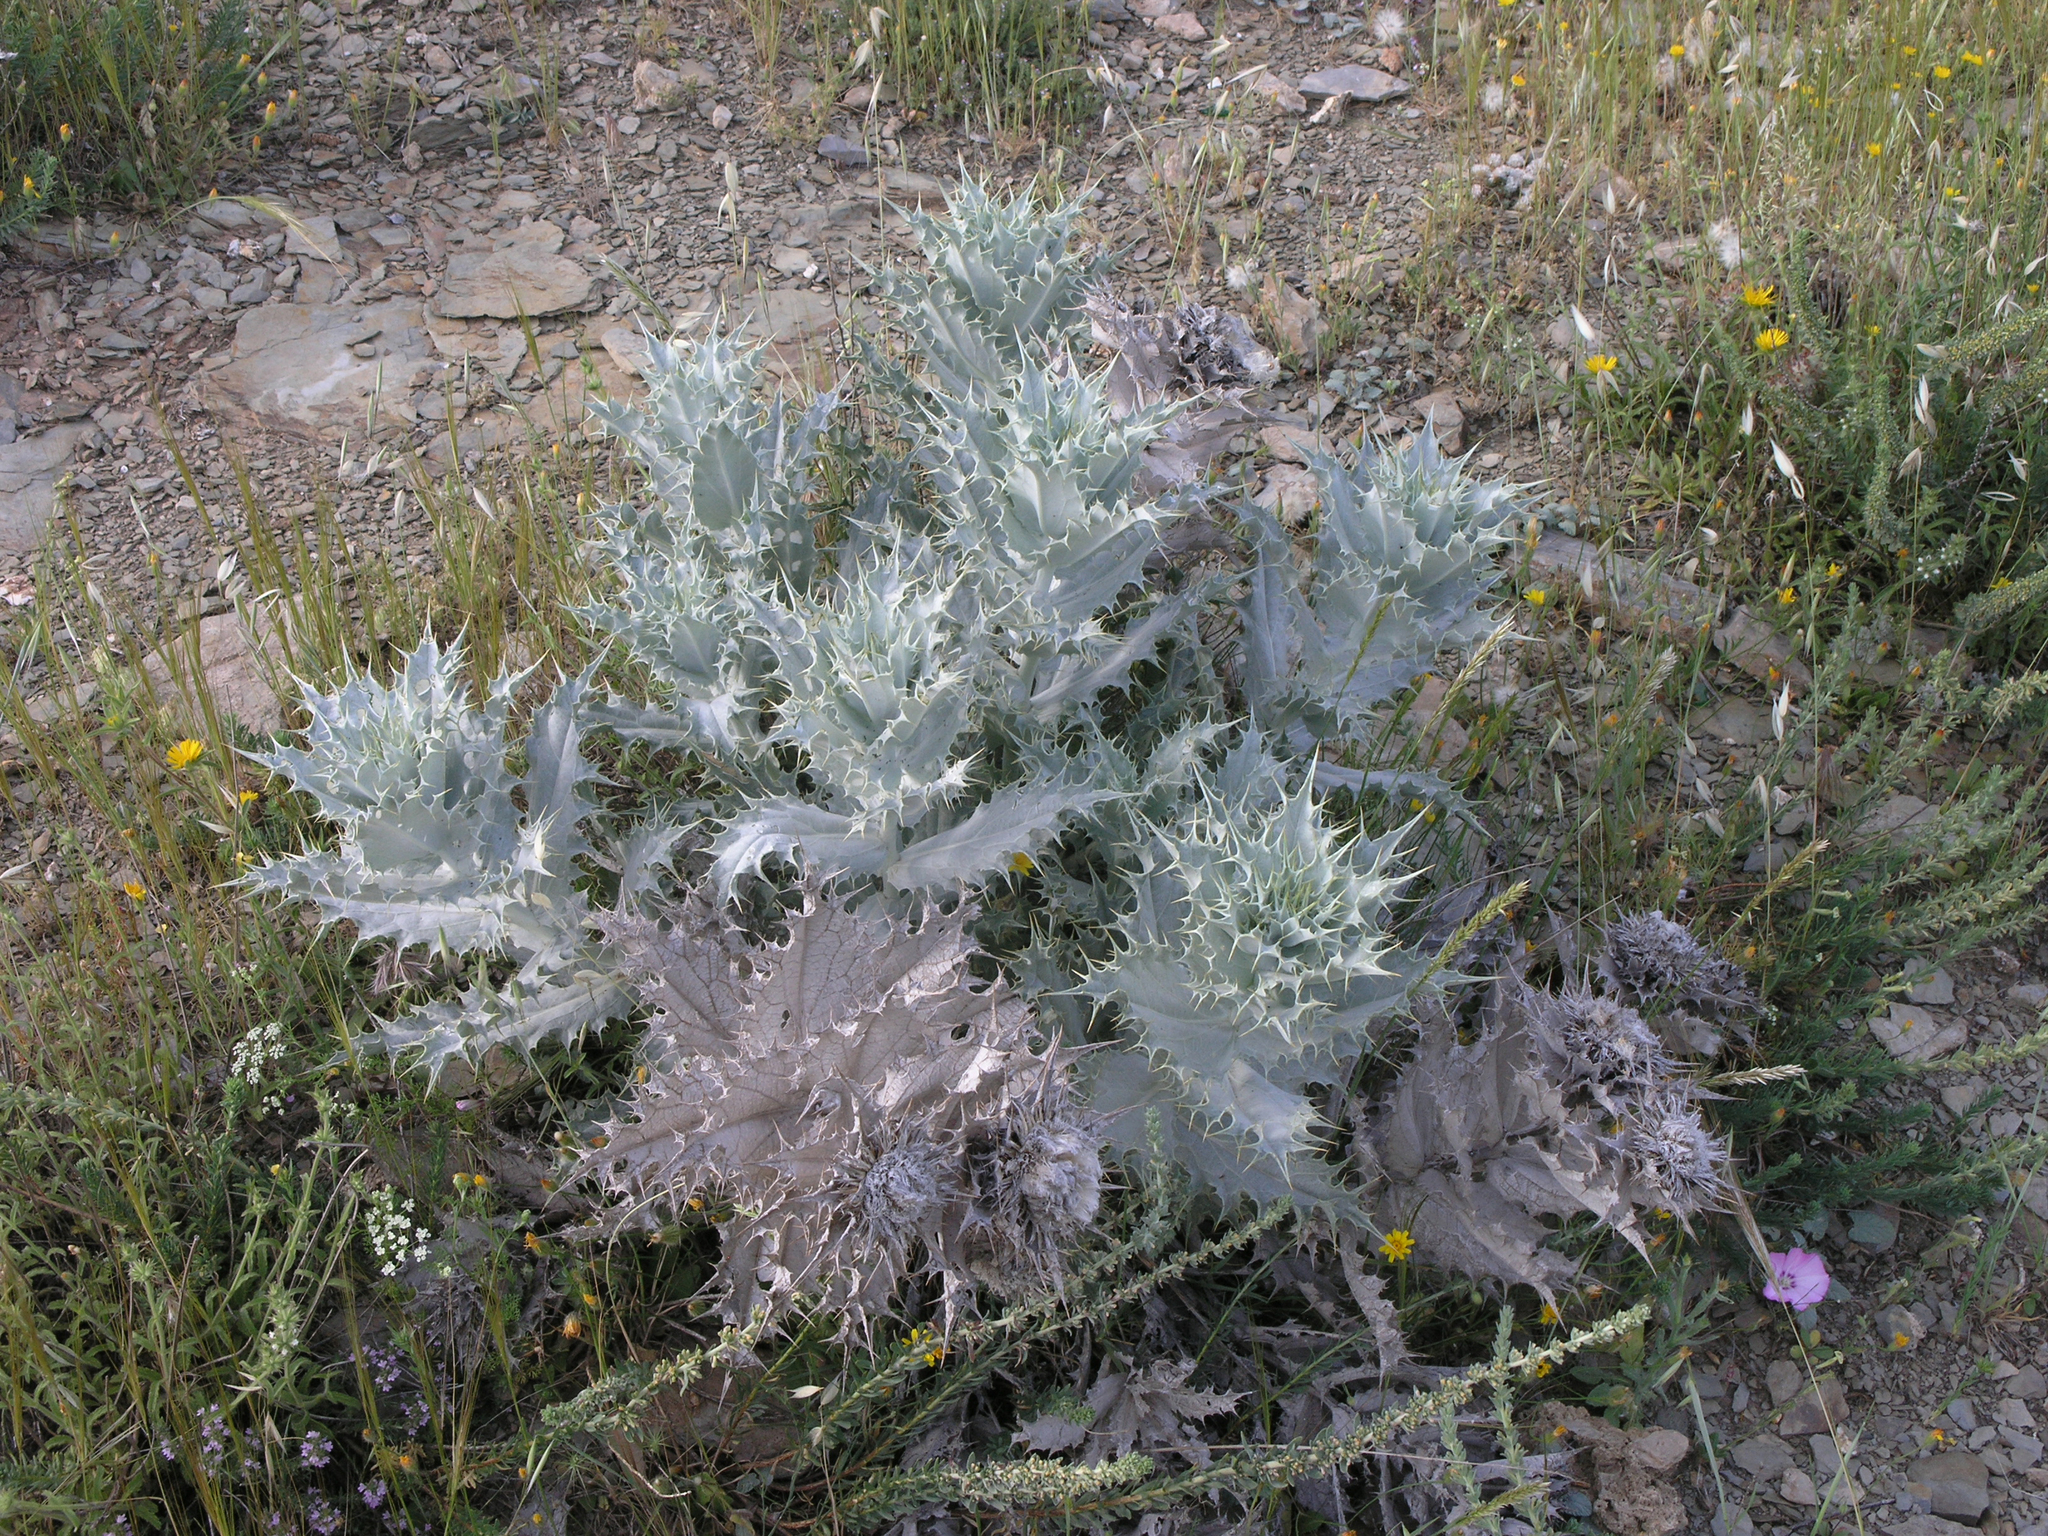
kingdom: Plantae
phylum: Tracheophyta
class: Magnoliopsida
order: Asterales
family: Asteraceae
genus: Chamaeleon
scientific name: Chamaeleon macrophyllus
